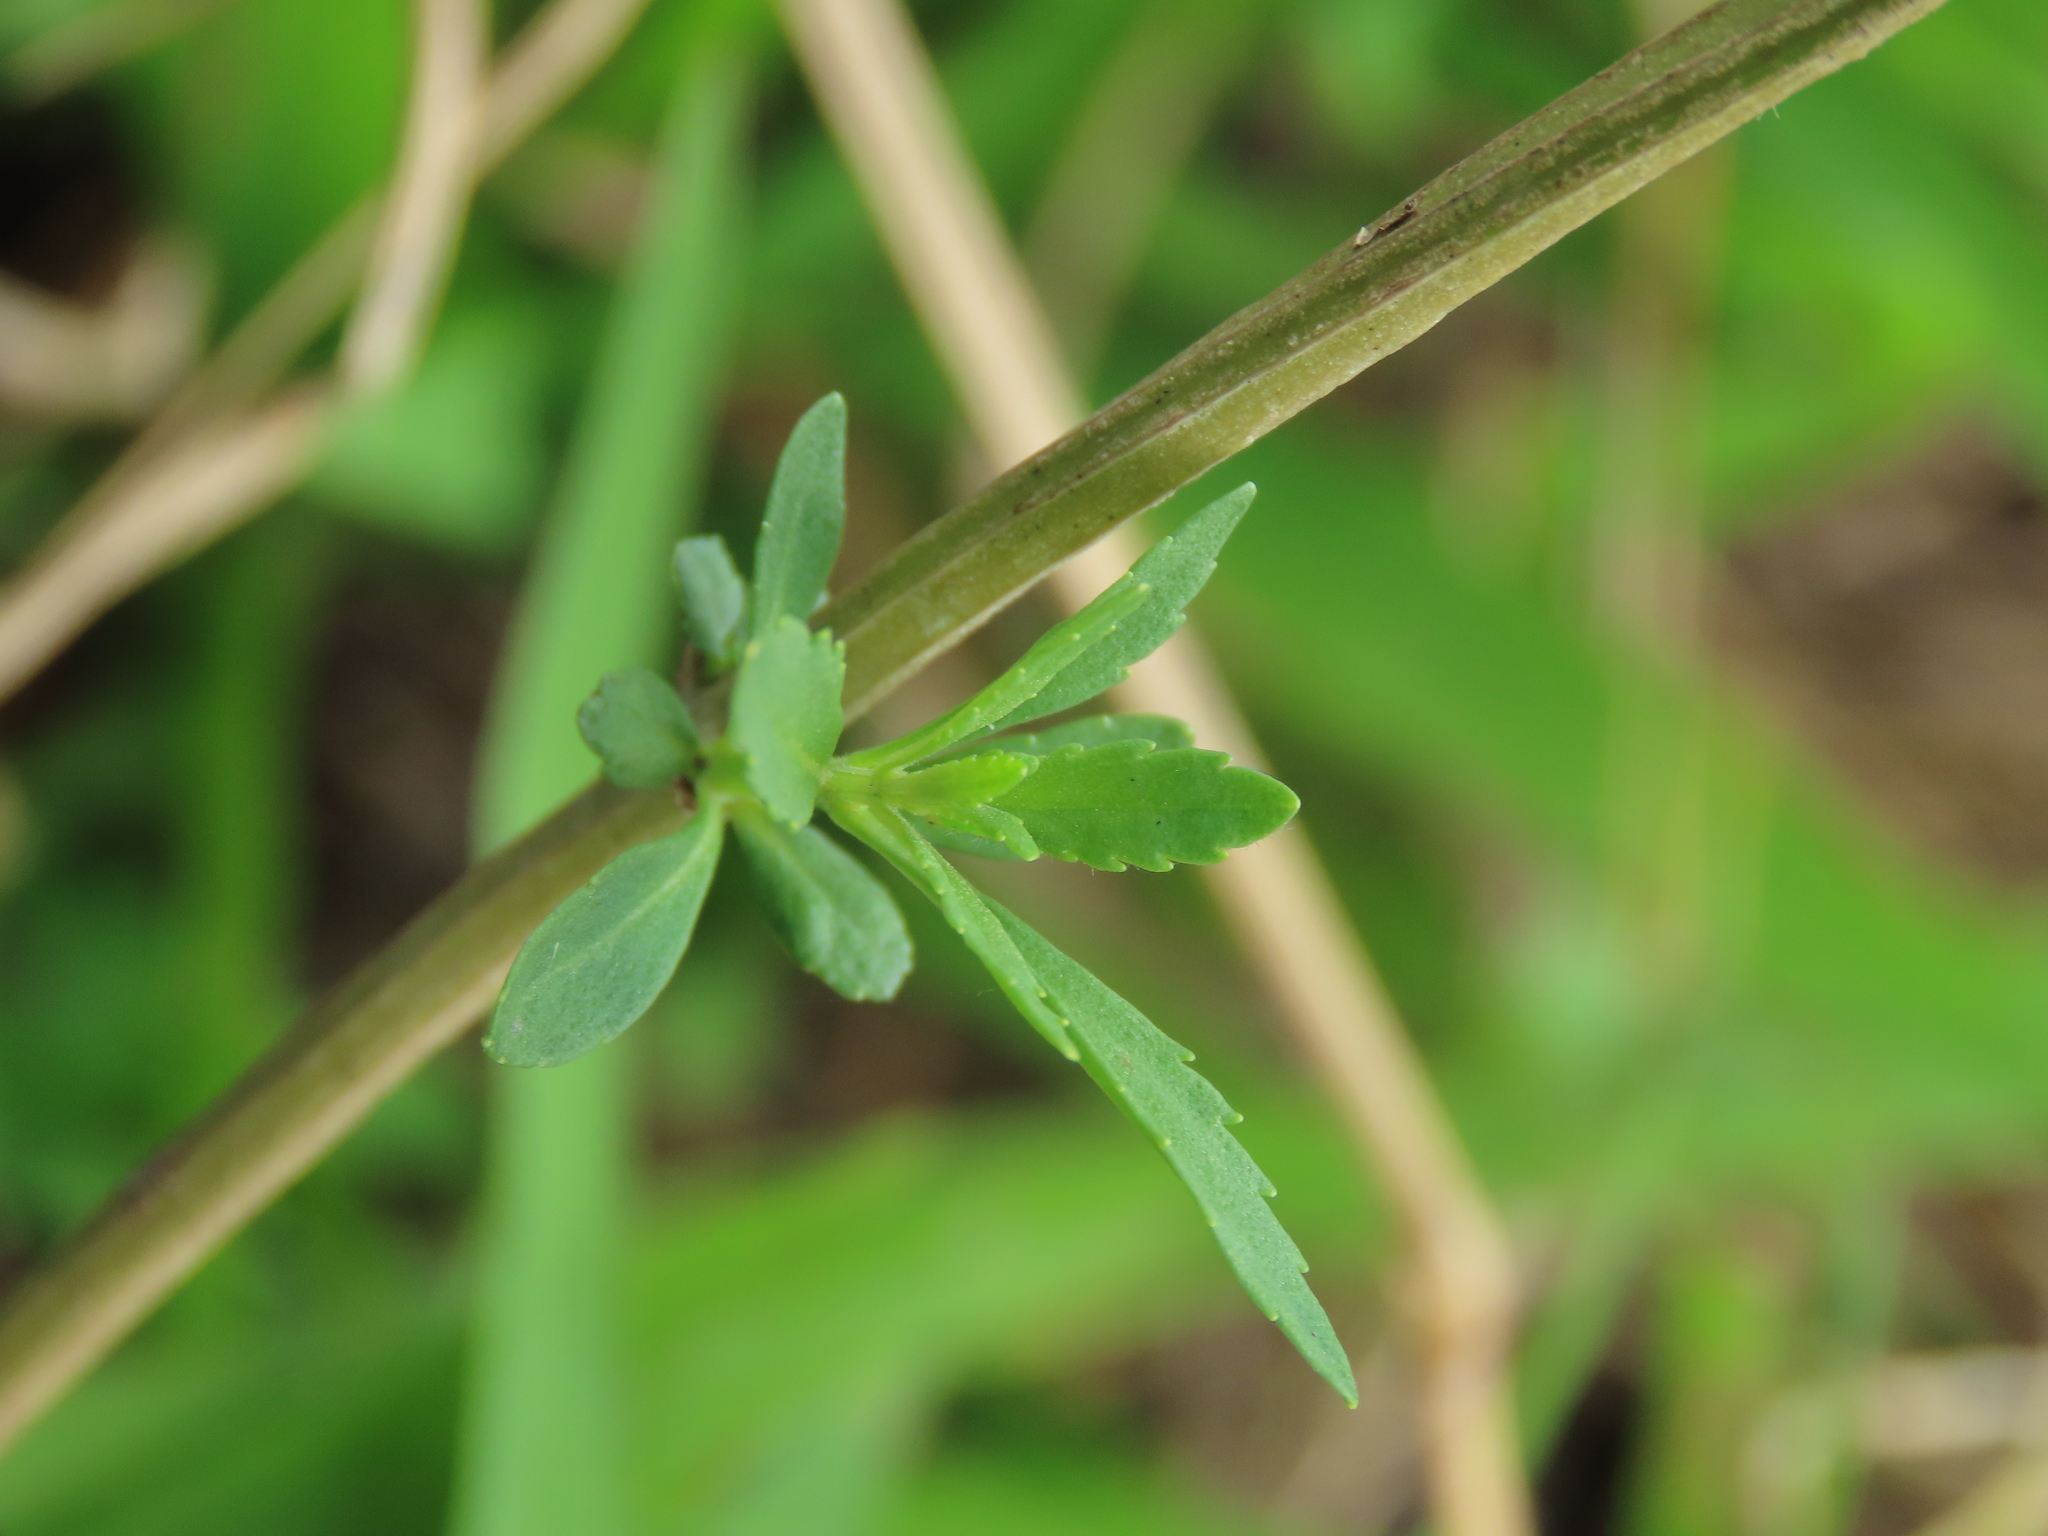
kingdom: Plantae
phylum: Tracheophyta
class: Magnoliopsida
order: Lamiales
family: Plantaginaceae
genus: Scoparia
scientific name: Scoparia dulcis
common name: Scoparia-weed
